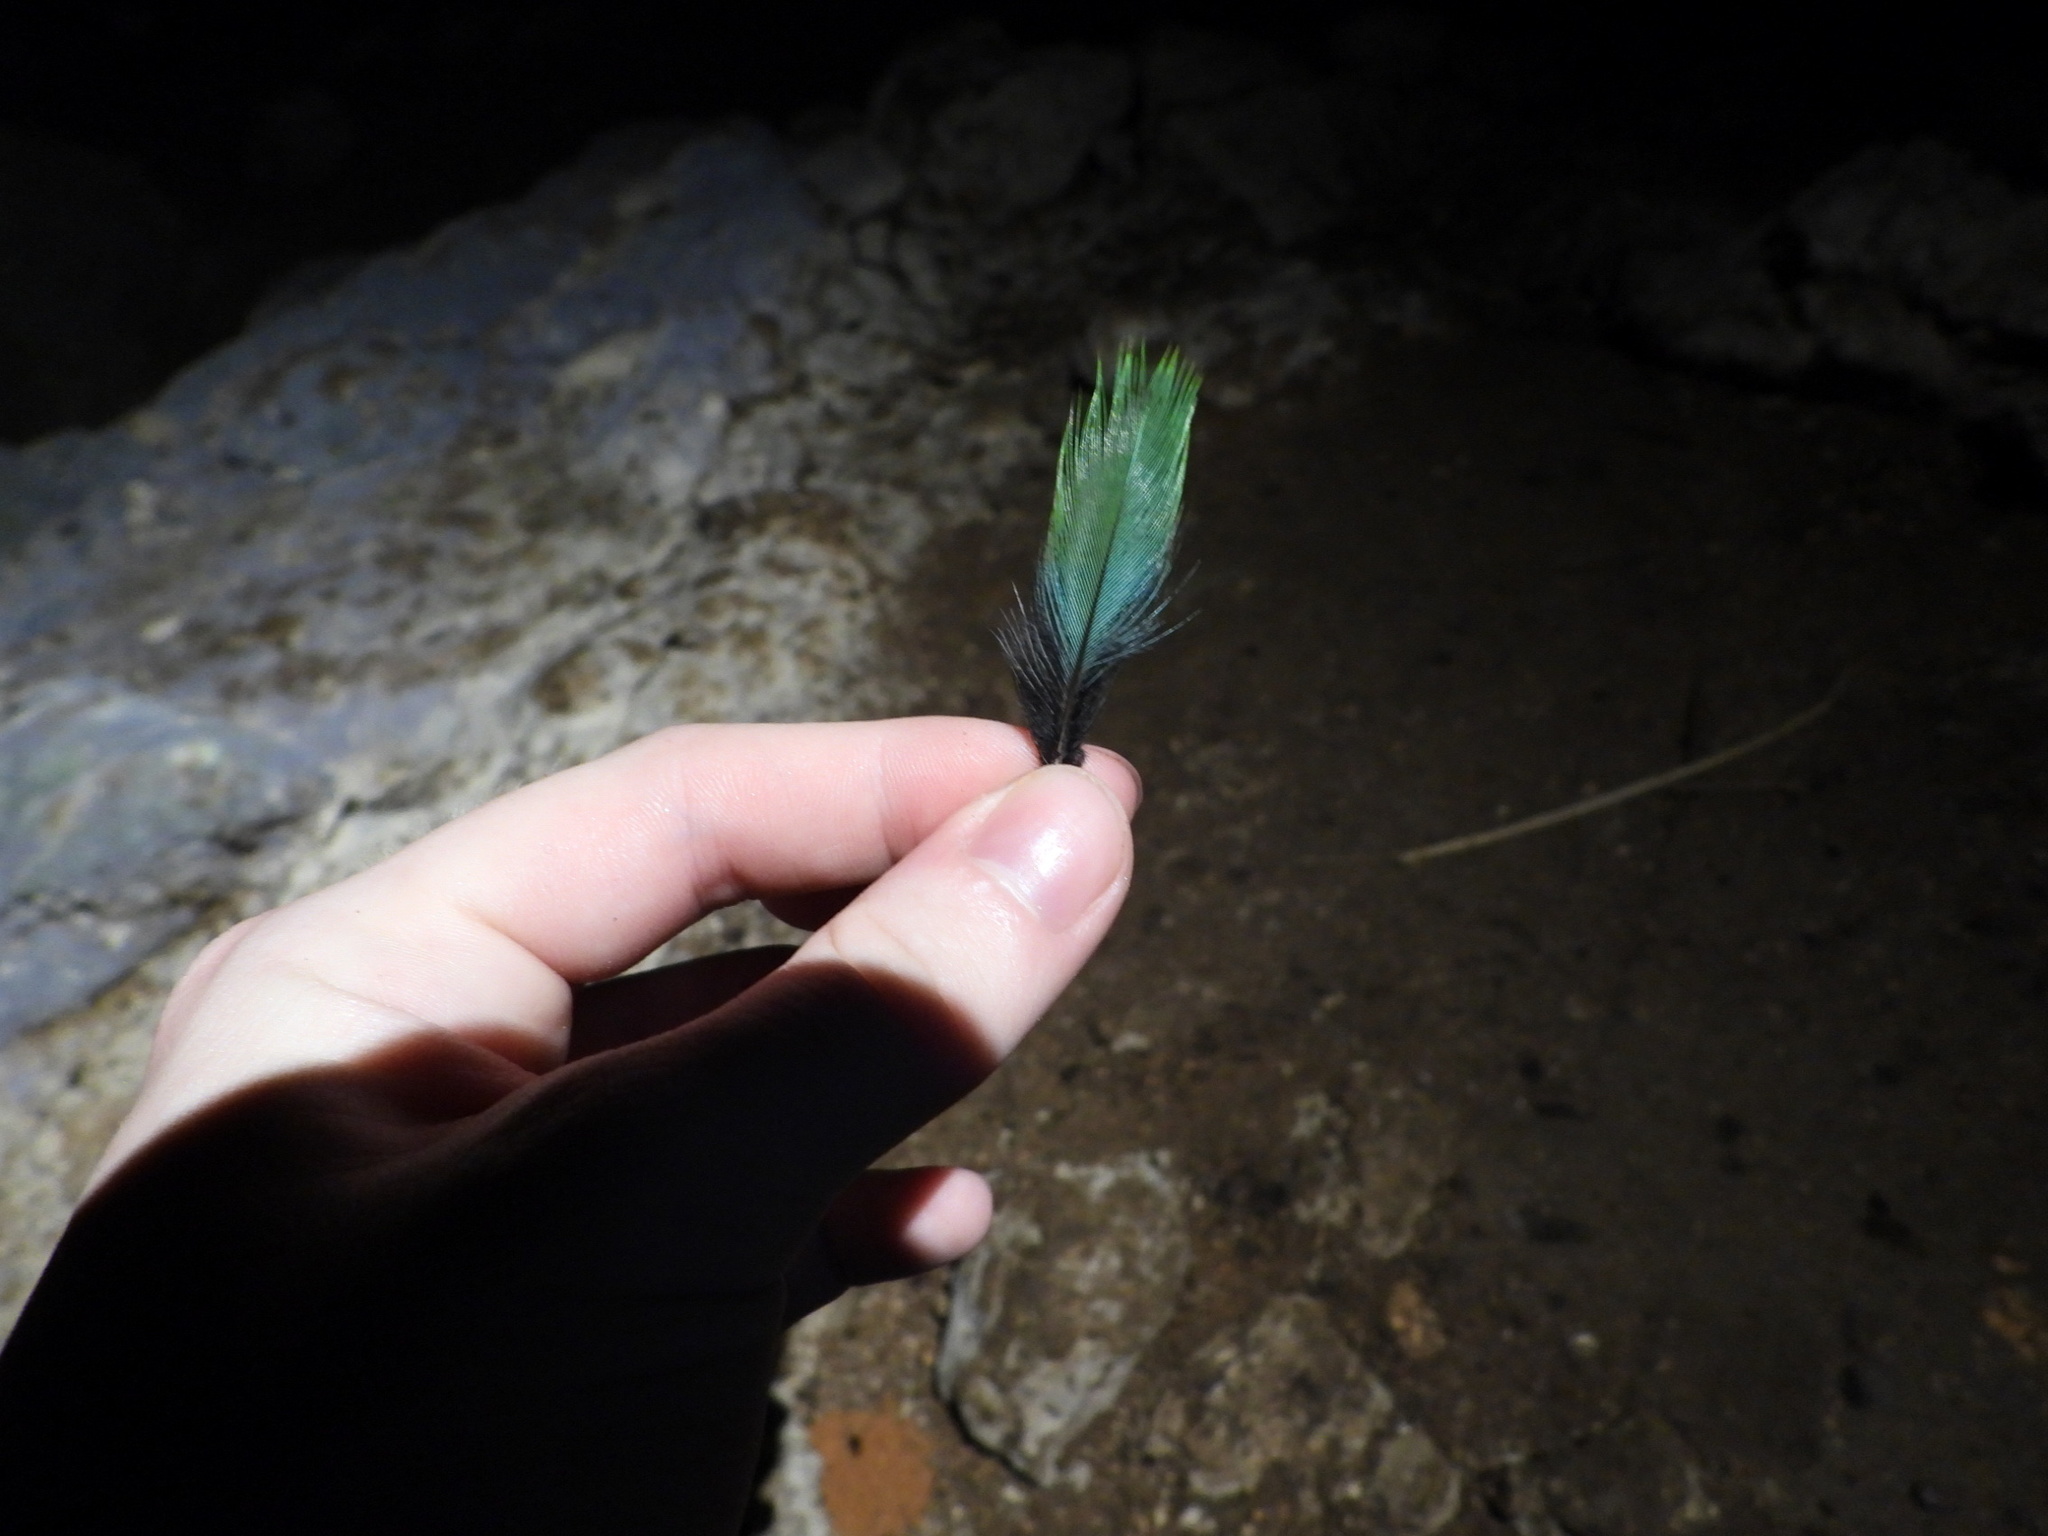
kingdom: Animalia
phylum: Chordata
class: Aves
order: Coraciiformes
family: Momotidae
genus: Eumomota
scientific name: Eumomota superciliosa
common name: Turquoise-browed motmot
